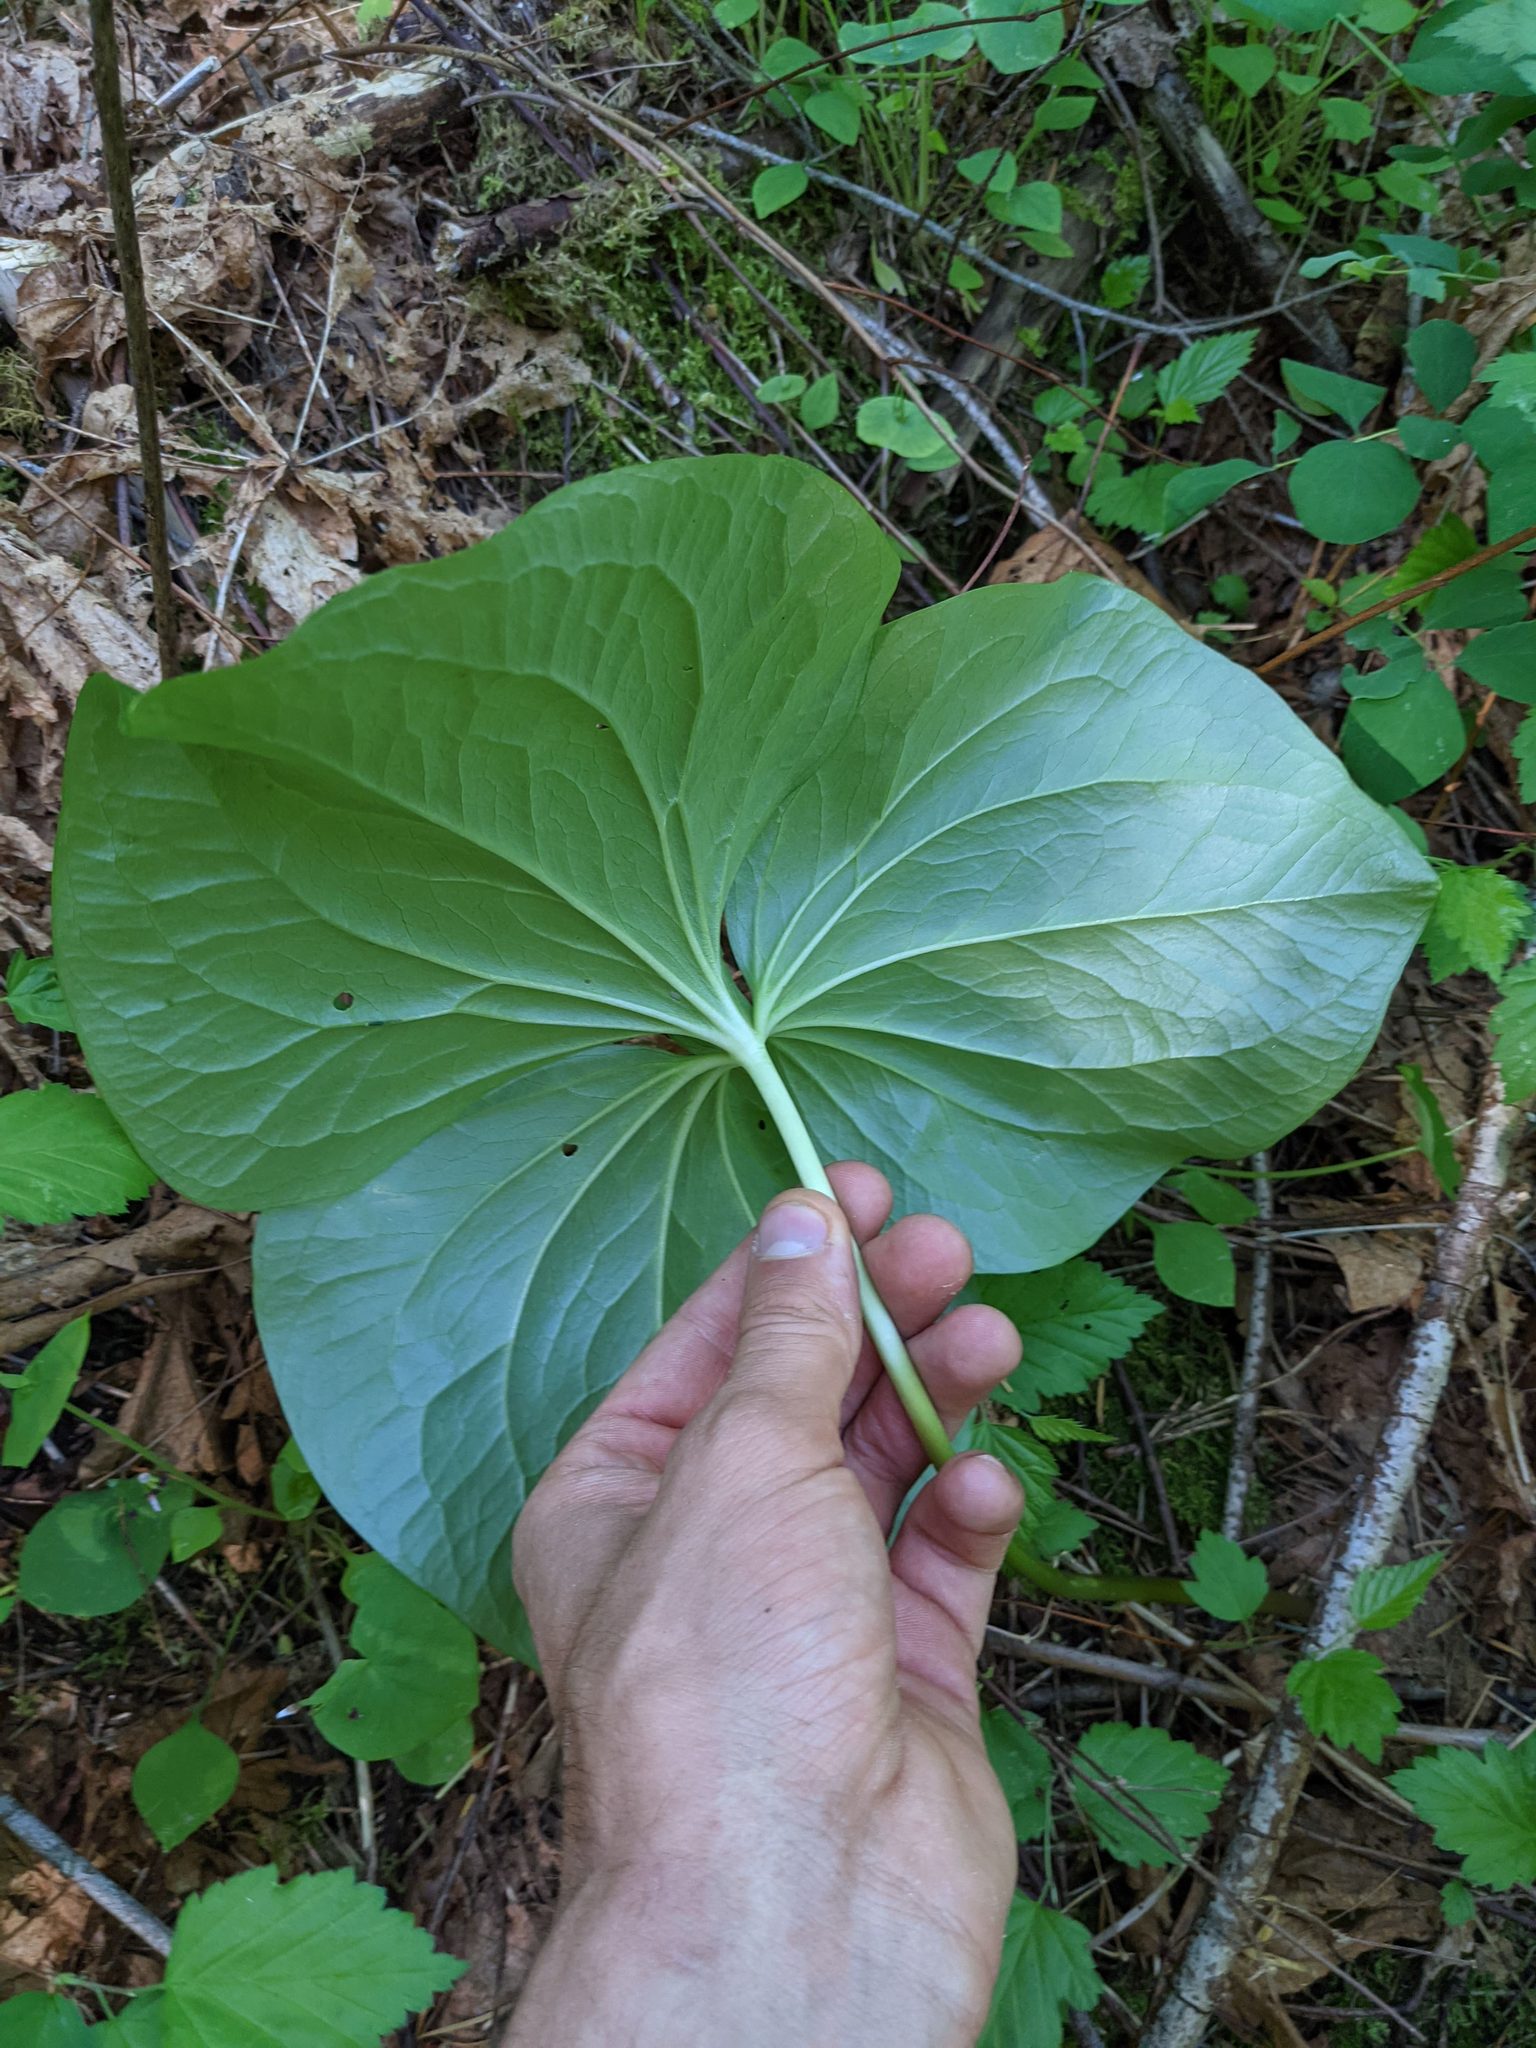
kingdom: Plantae
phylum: Tracheophyta
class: Liliopsida
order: Liliales
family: Melanthiaceae
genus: Trillium
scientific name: Trillium chloropetalum
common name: Giant trillium
